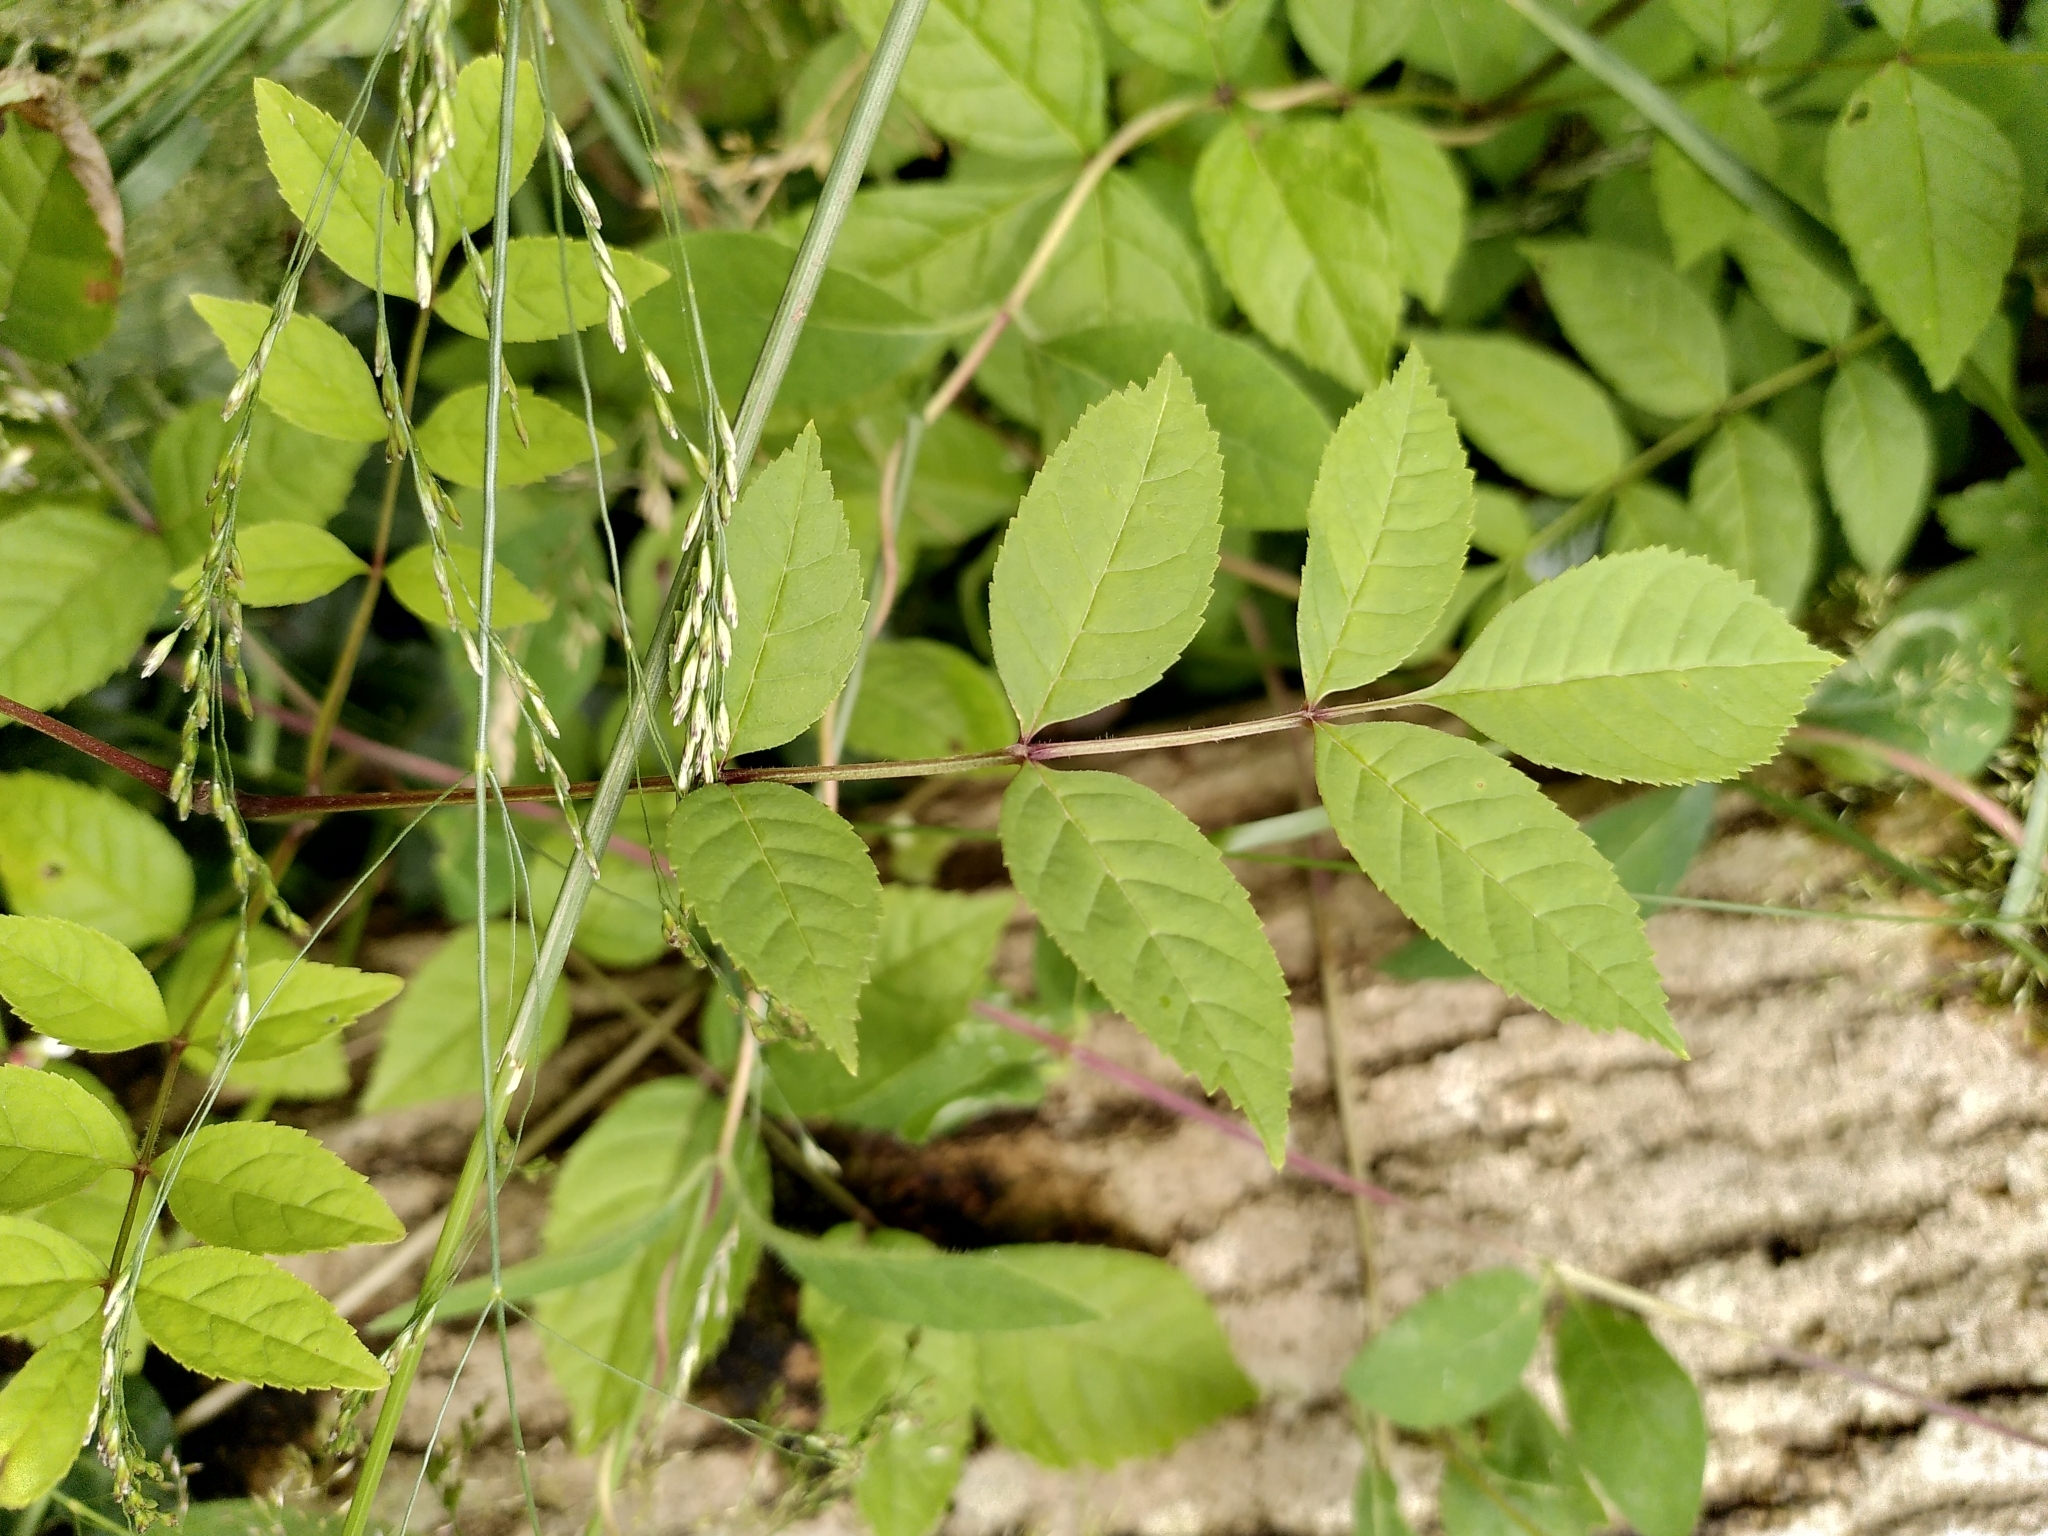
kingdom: Plantae
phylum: Tracheophyta
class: Magnoliopsida
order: Lamiales
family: Oleaceae
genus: Fraxinus
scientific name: Fraxinus excelsior
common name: European ash
